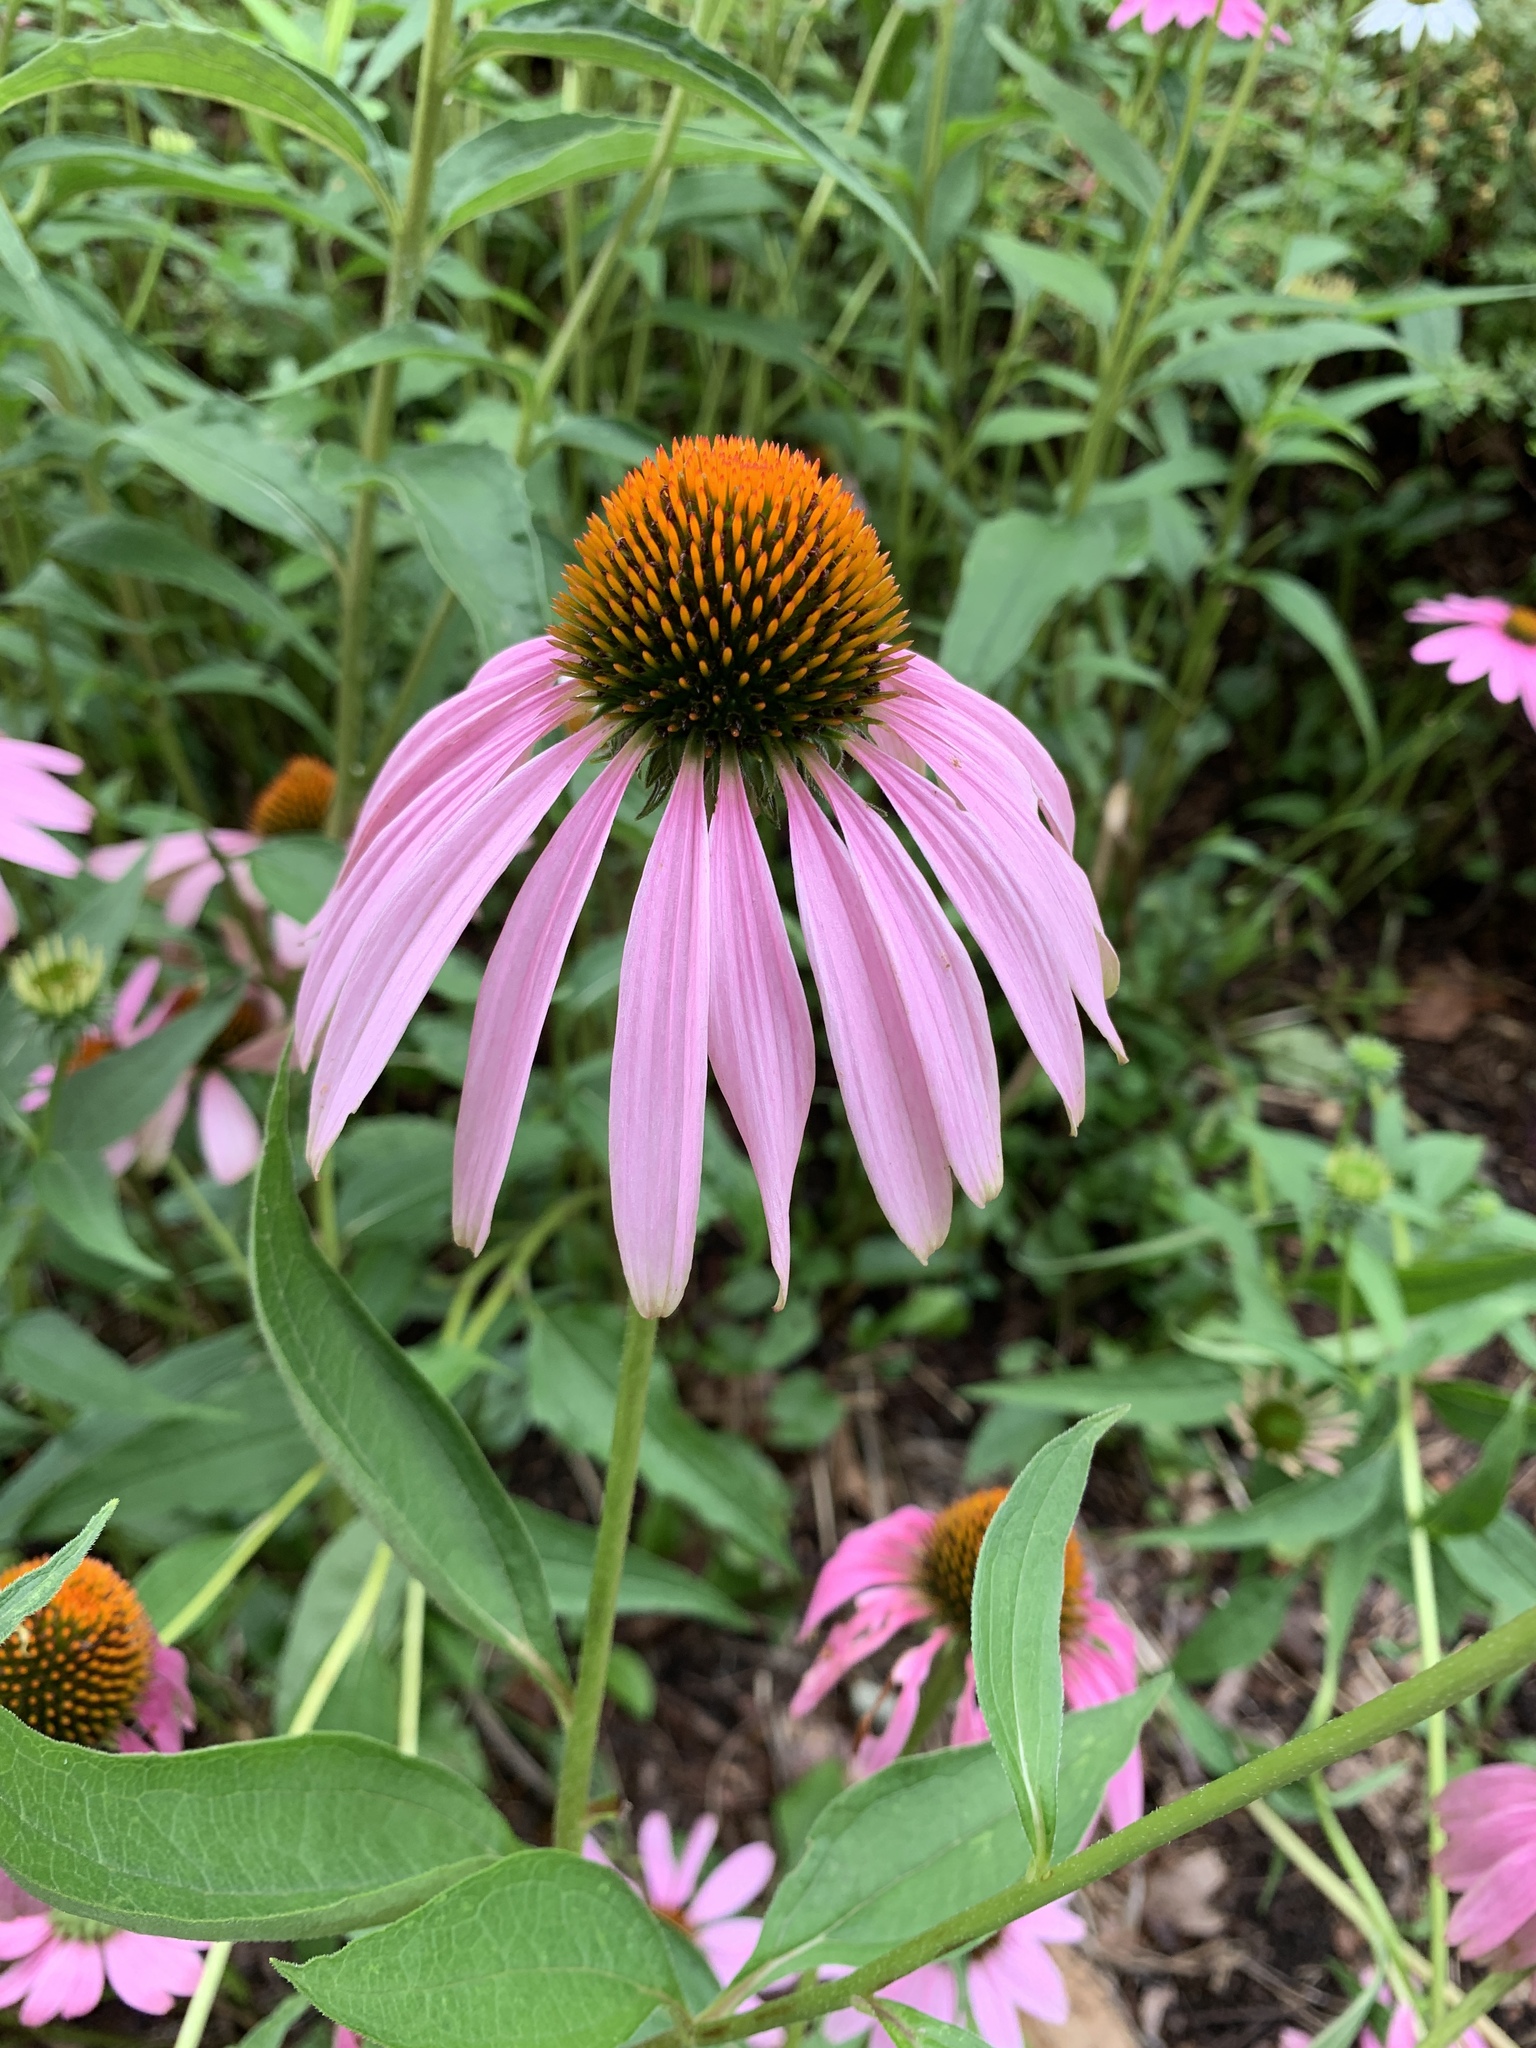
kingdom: Plantae
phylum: Tracheophyta
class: Magnoliopsida
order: Asterales
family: Asteraceae
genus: Echinacea
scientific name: Echinacea purpurea
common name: Broad-leaved purple coneflower
